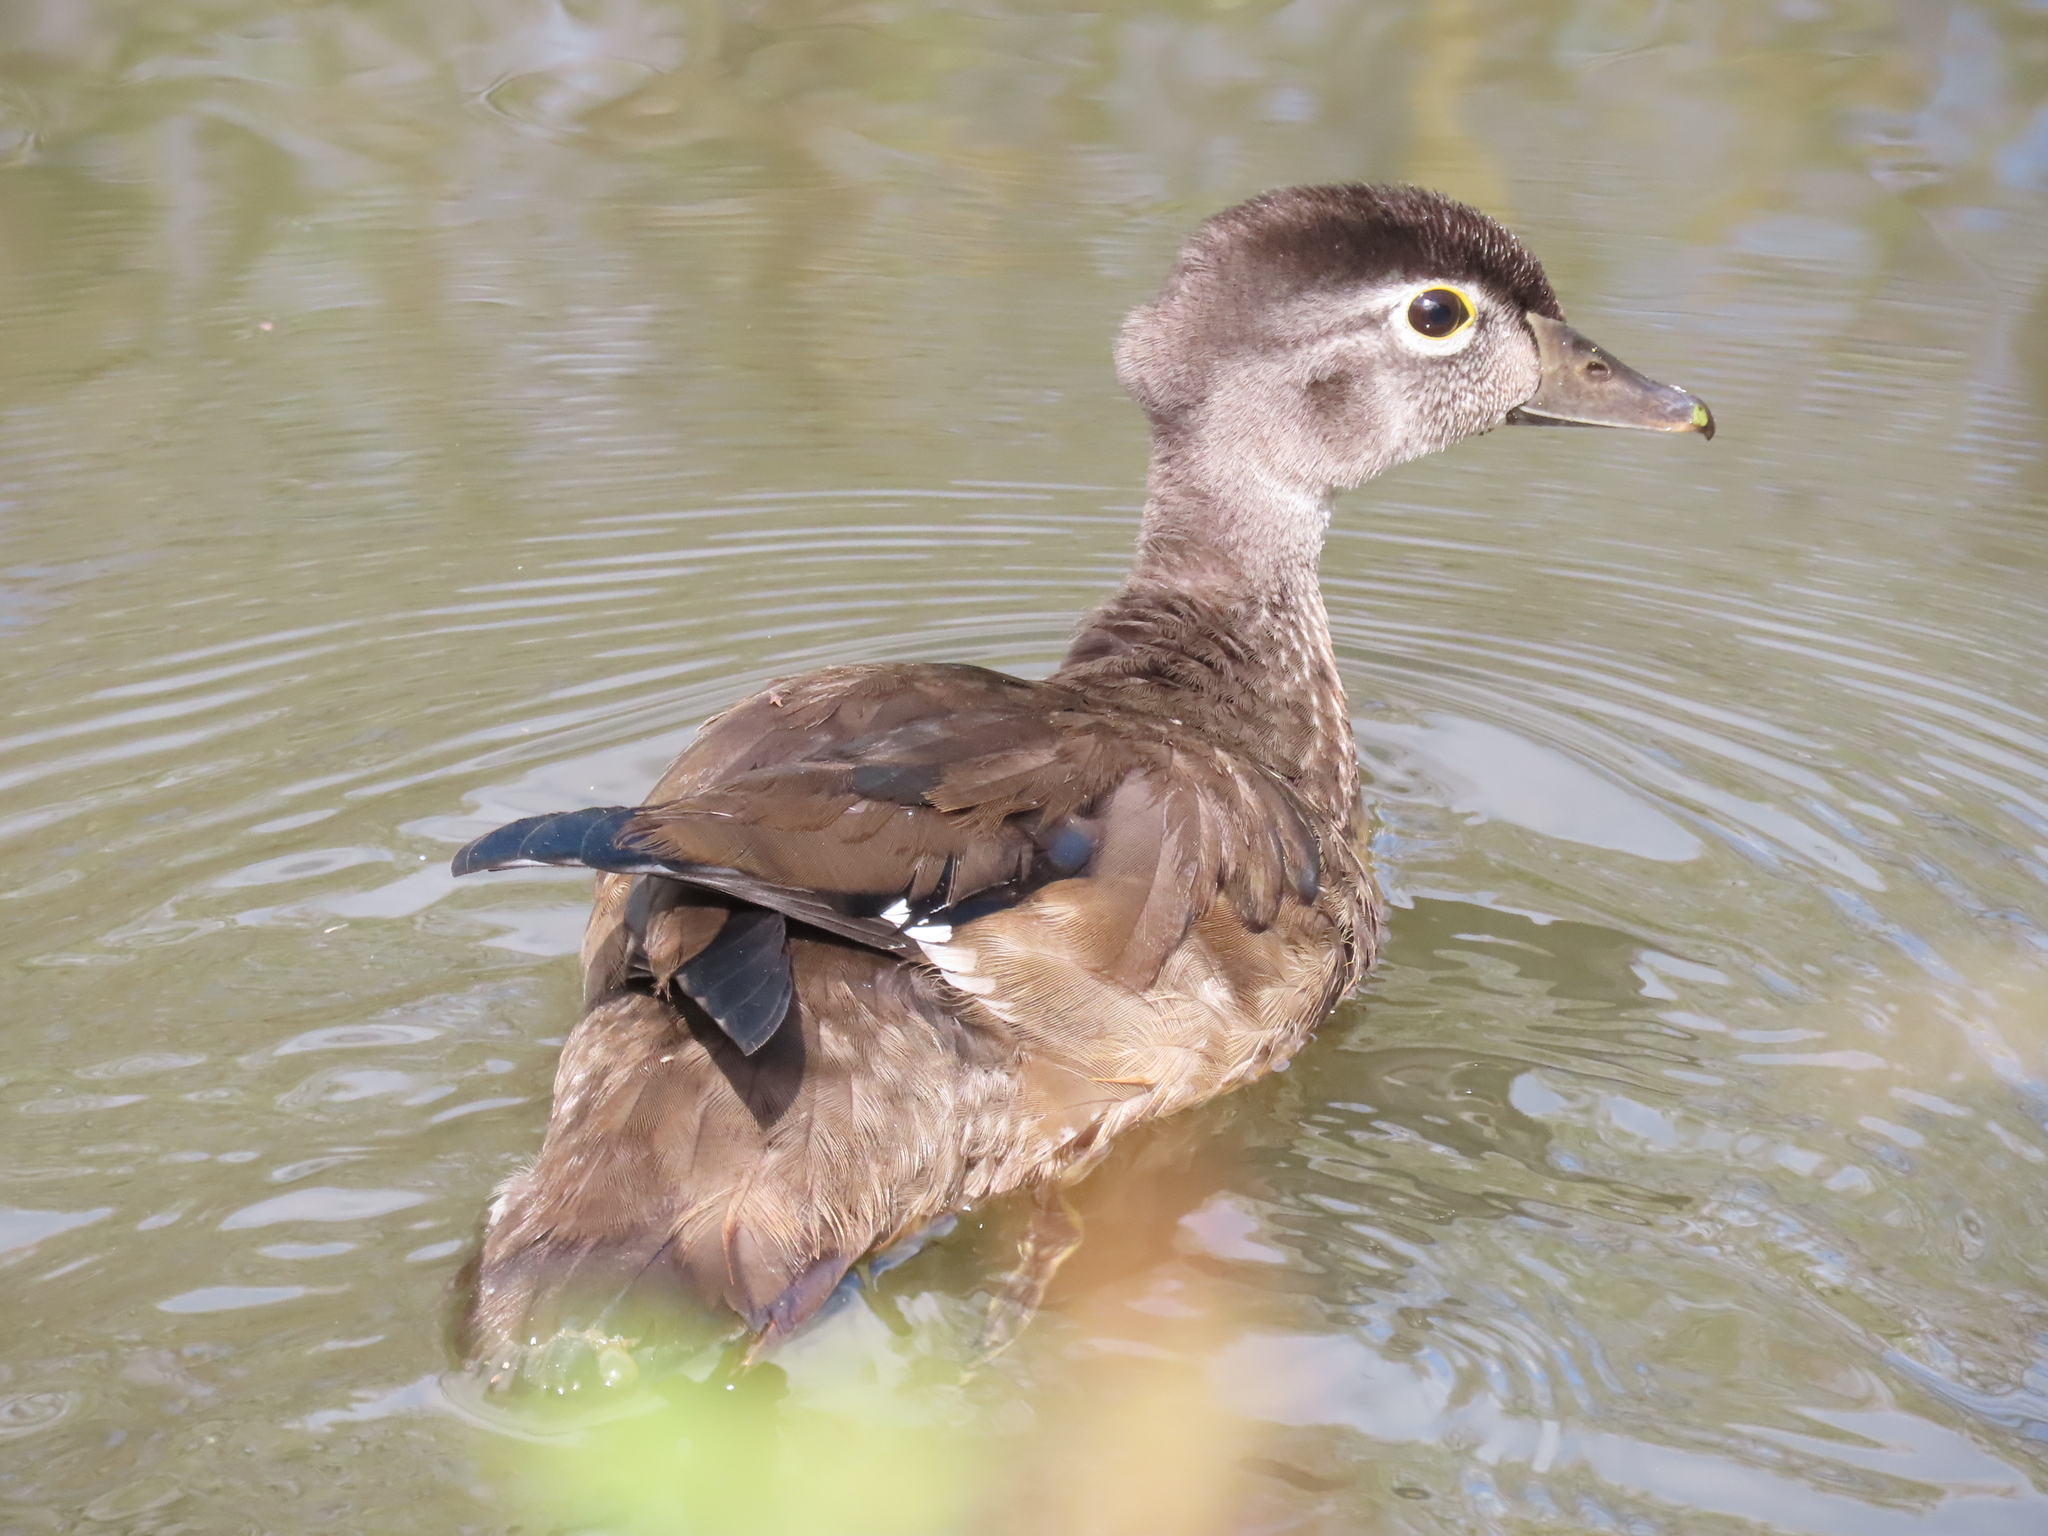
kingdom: Animalia
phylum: Chordata
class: Aves
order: Anseriformes
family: Anatidae
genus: Aix
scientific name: Aix sponsa
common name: Wood duck
